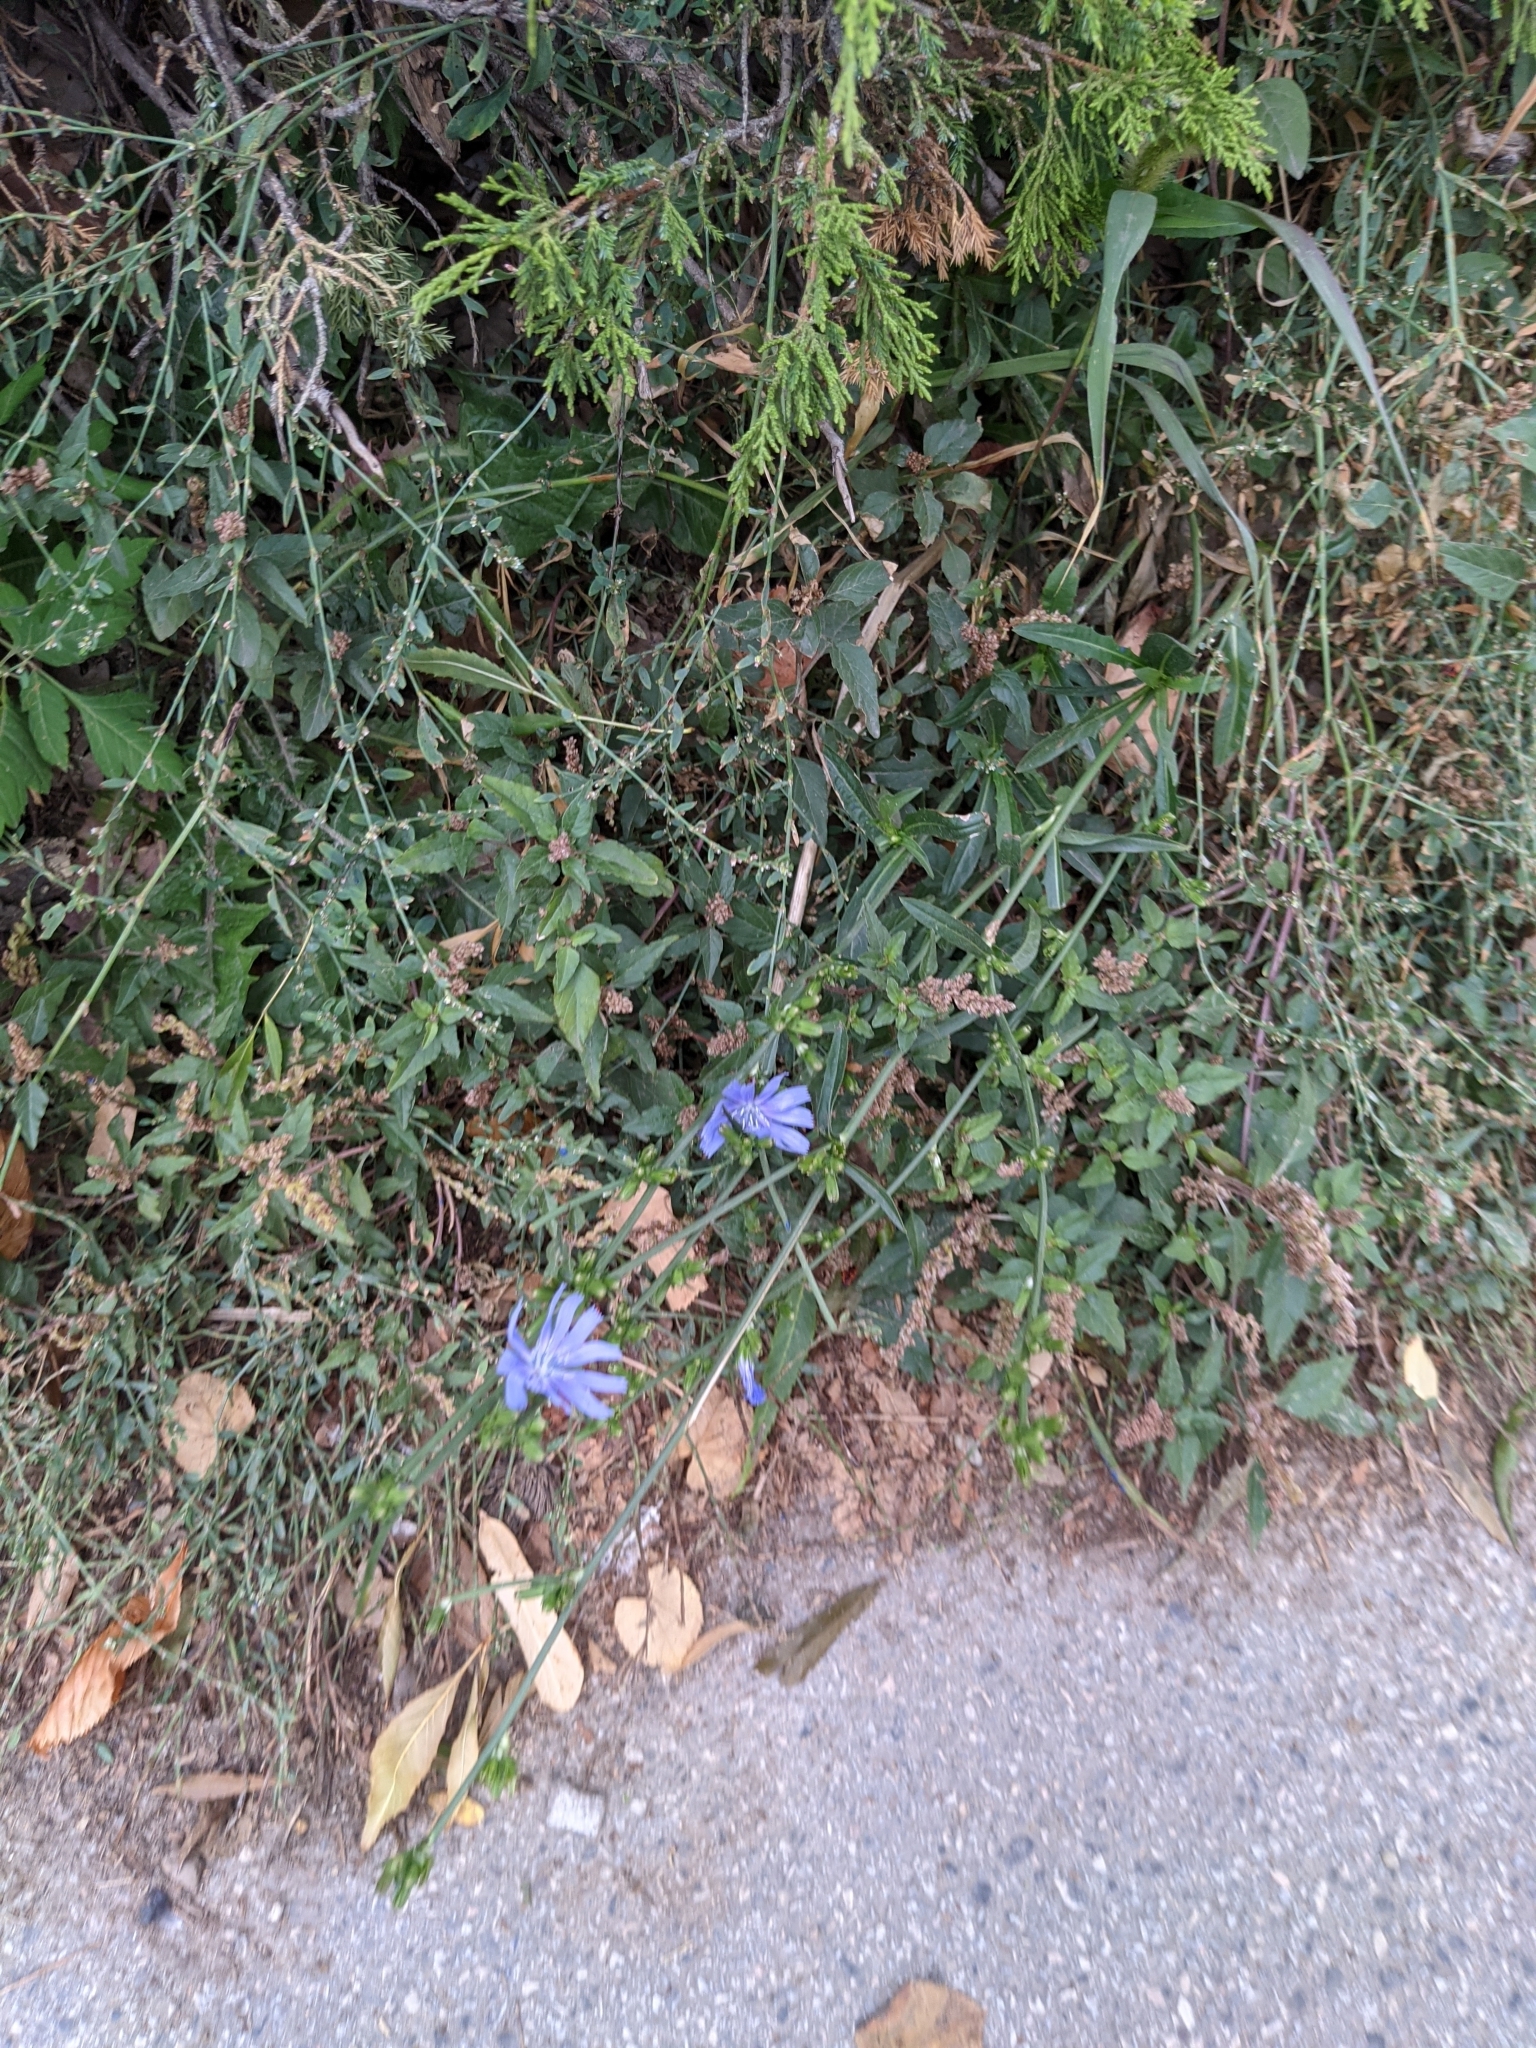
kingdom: Plantae
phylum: Tracheophyta
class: Magnoliopsida
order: Asterales
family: Asteraceae
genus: Cichorium
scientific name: Cichorium intybus
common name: Chicory
